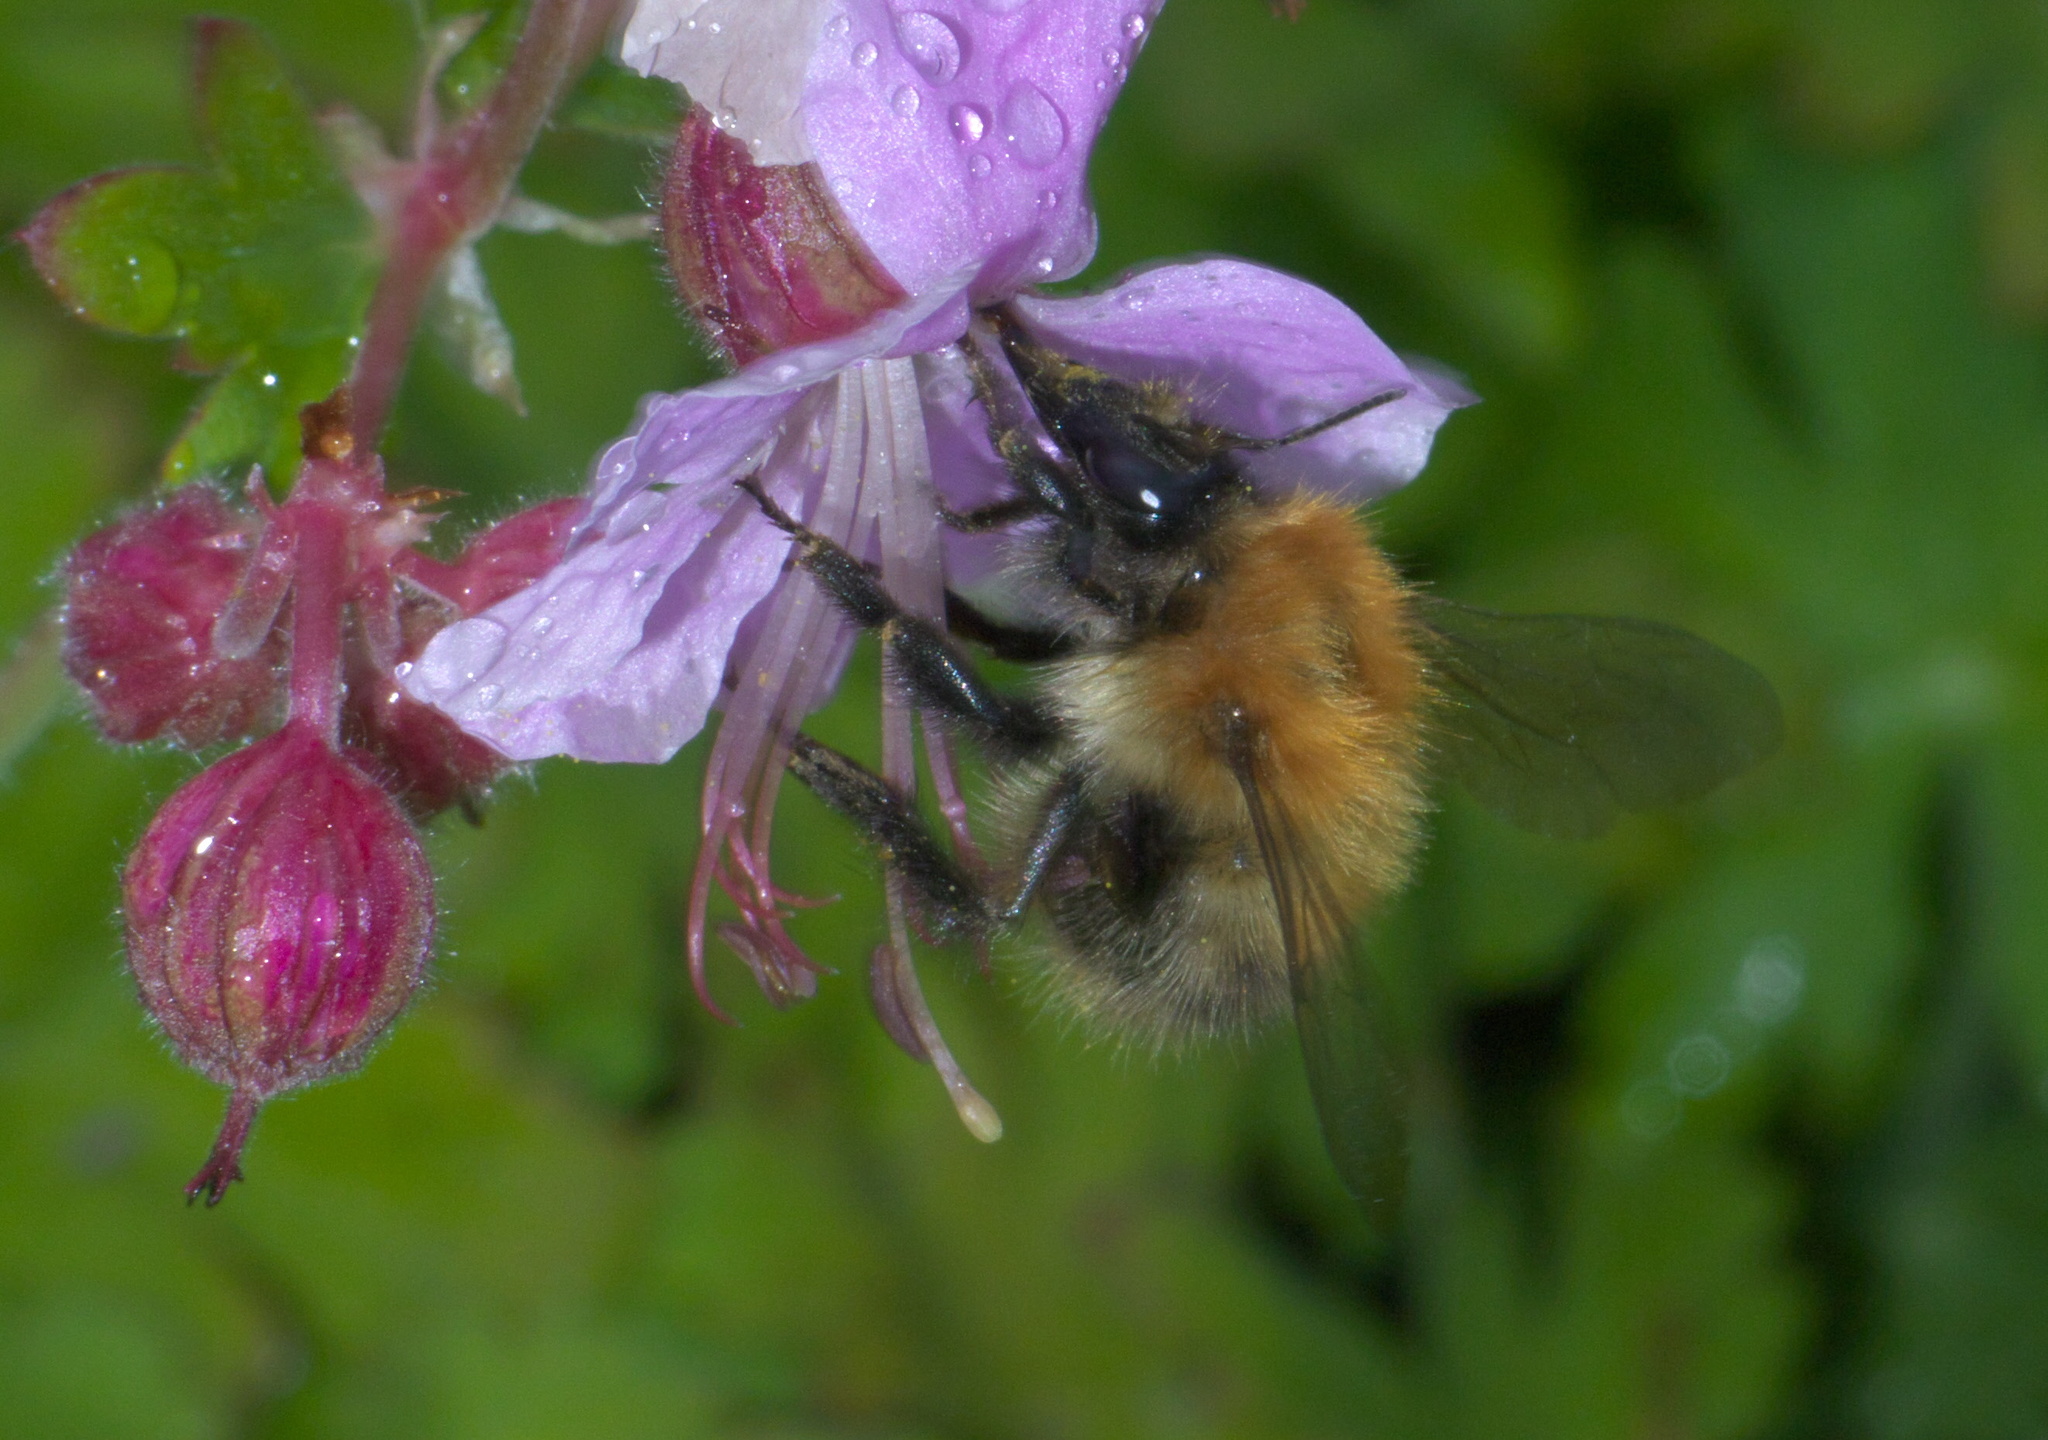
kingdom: Animalia
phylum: Arthropoda
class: Insecta
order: Hymenoptera
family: Apidae
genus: Bombus
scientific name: Bombus pascuorum
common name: Common carder bee
